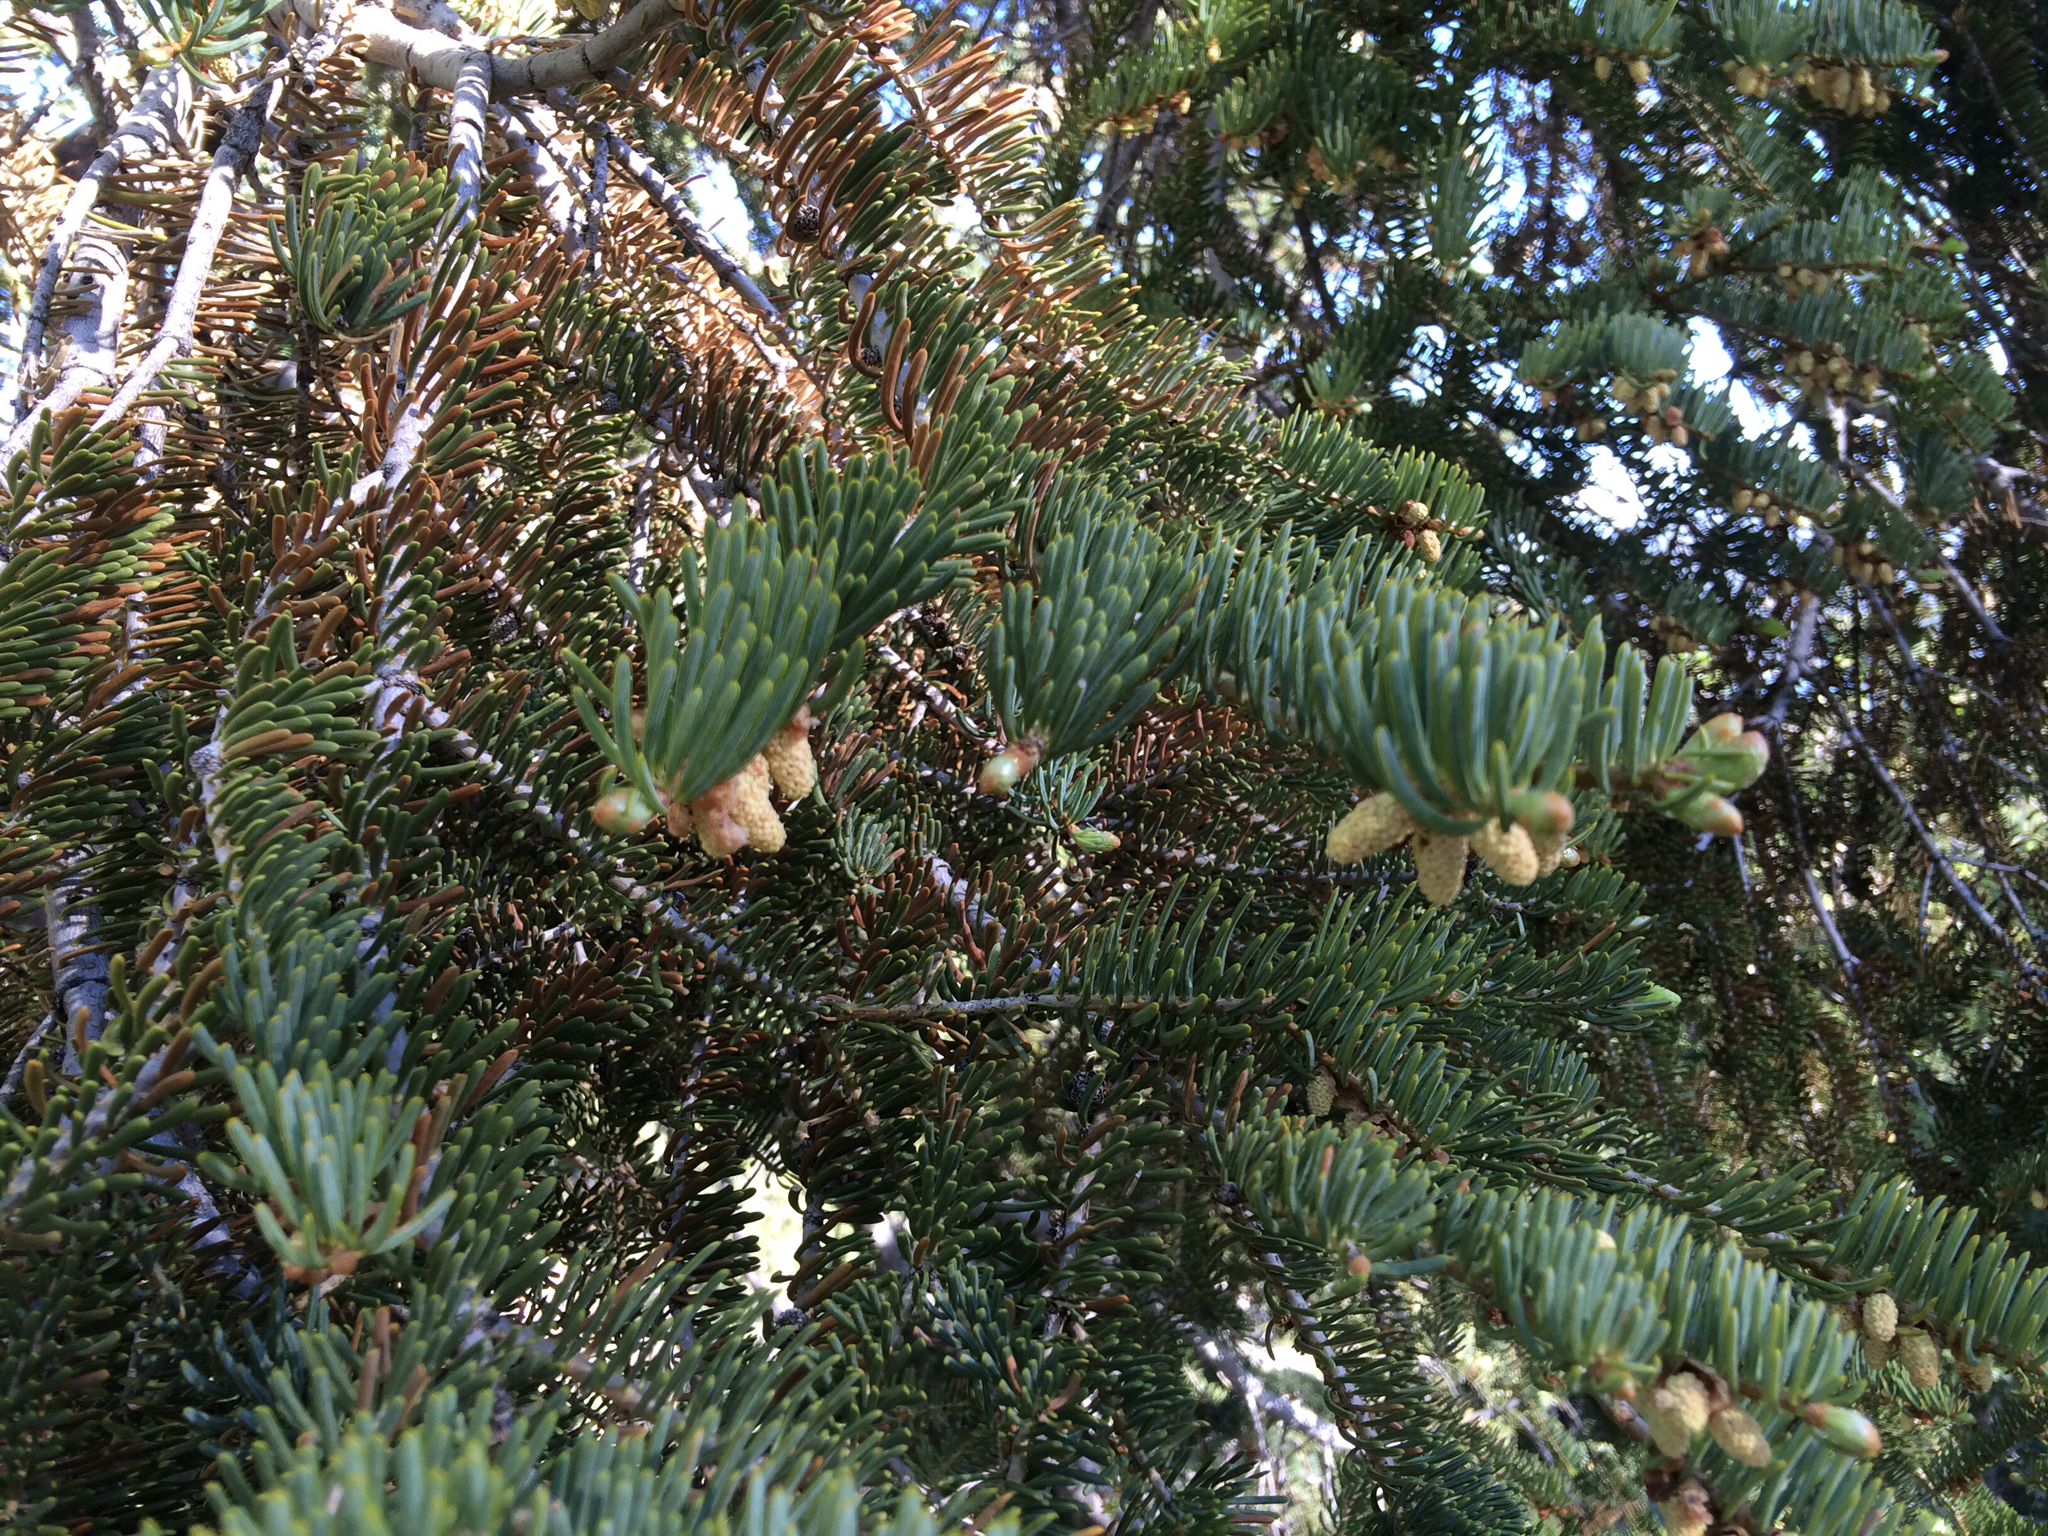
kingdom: Plantae
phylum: Tracheophyta
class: Pinopsida
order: Pinales
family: Pinaceae
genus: Abies
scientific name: Abies concolor
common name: Colorado fir
